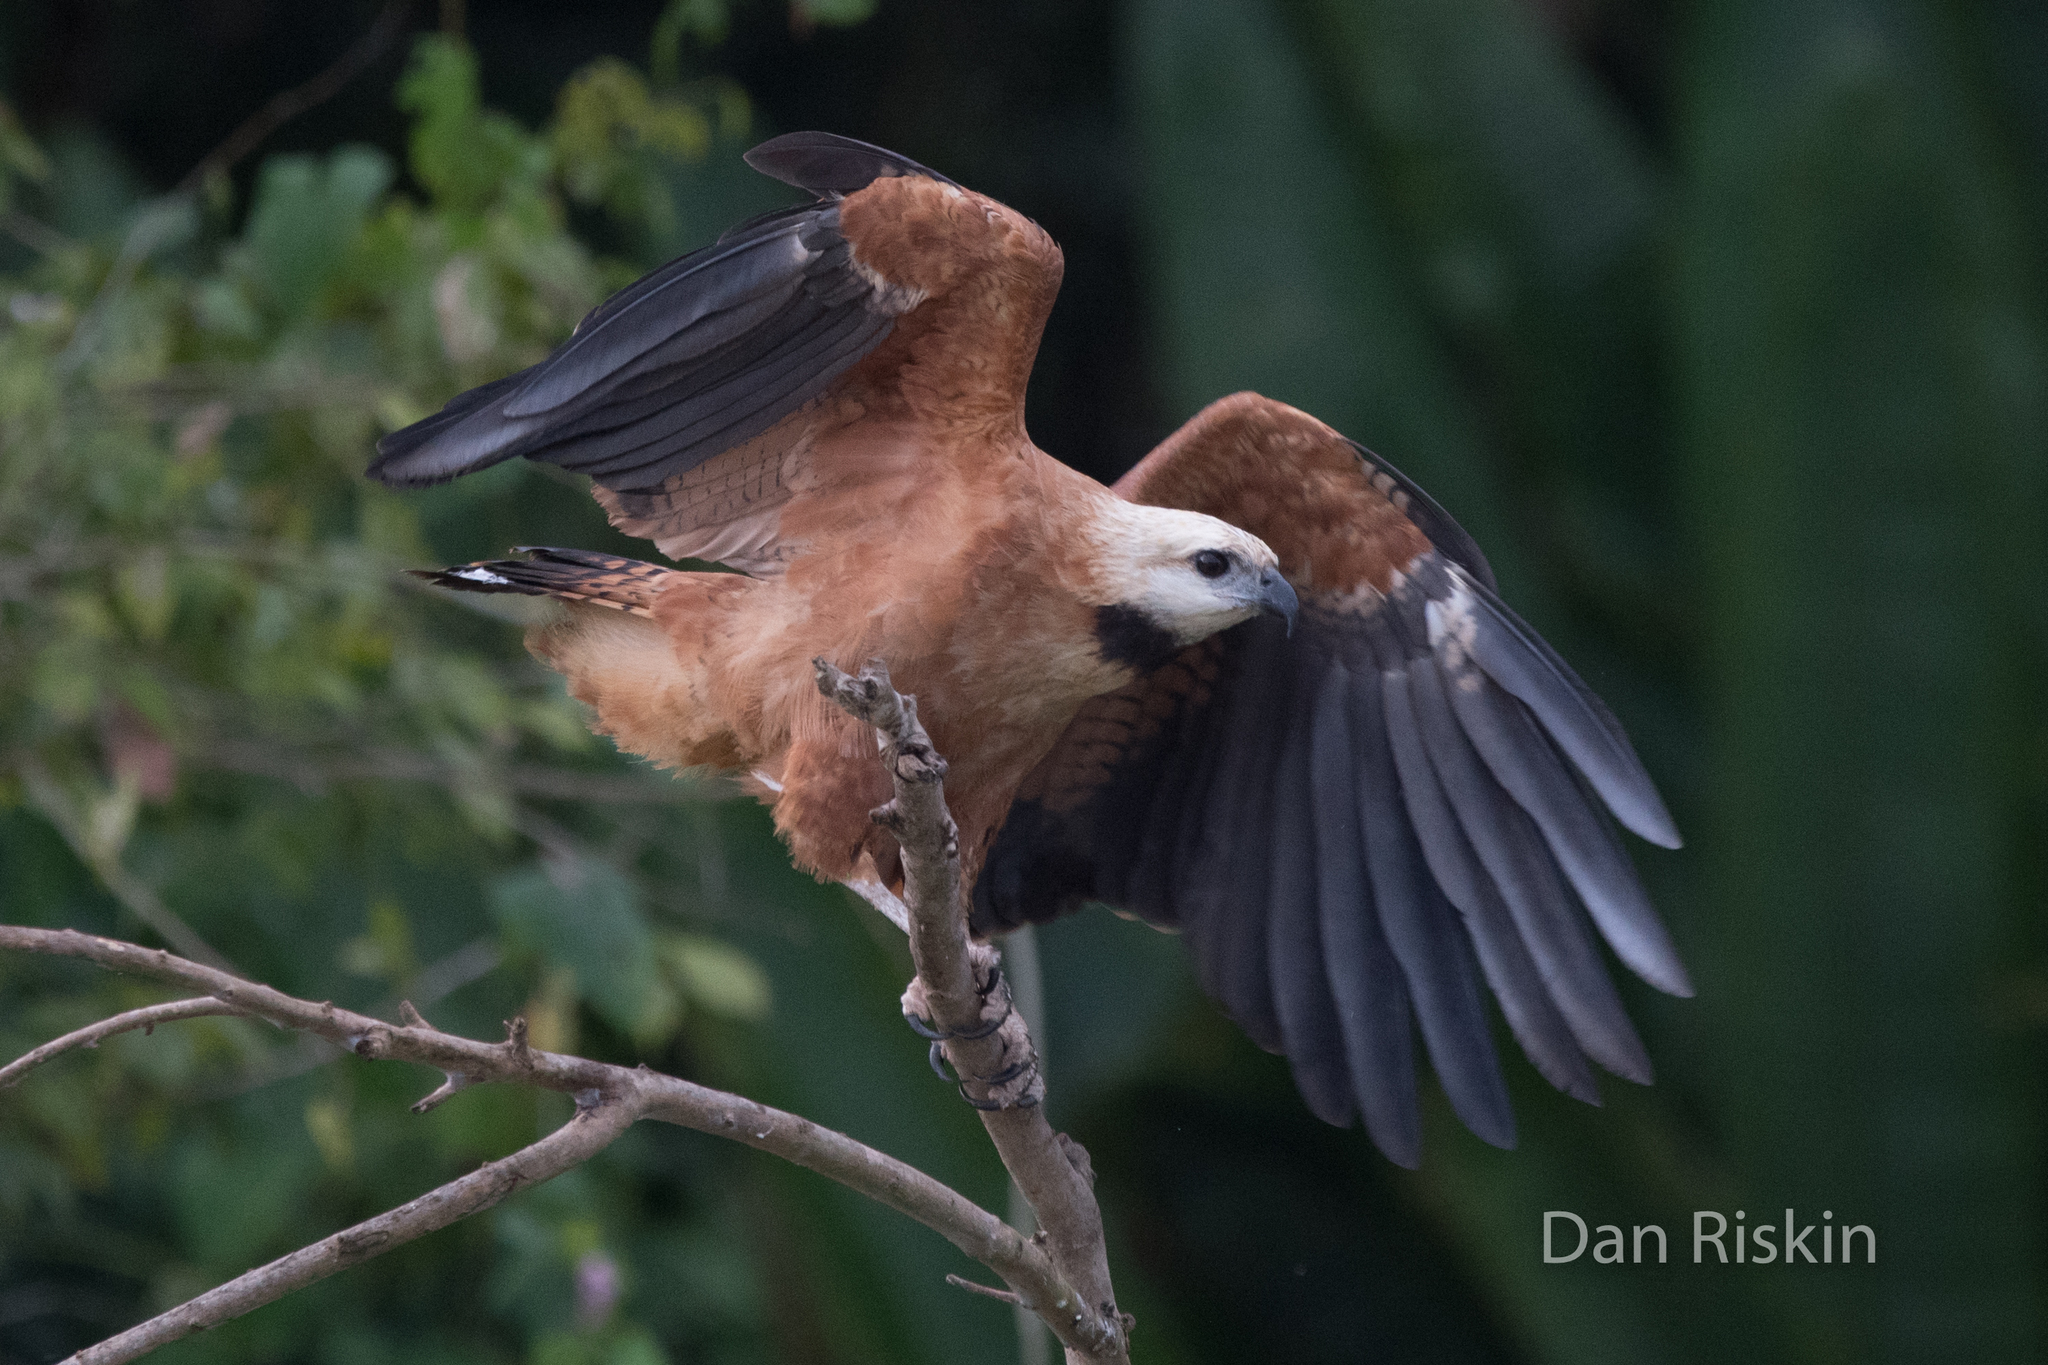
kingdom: Animalia
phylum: Chordata
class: Aves
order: Accipitriformes
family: Accipitridae
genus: Busarellus
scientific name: Busarellus nigricollis
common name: Black-collared hawk
